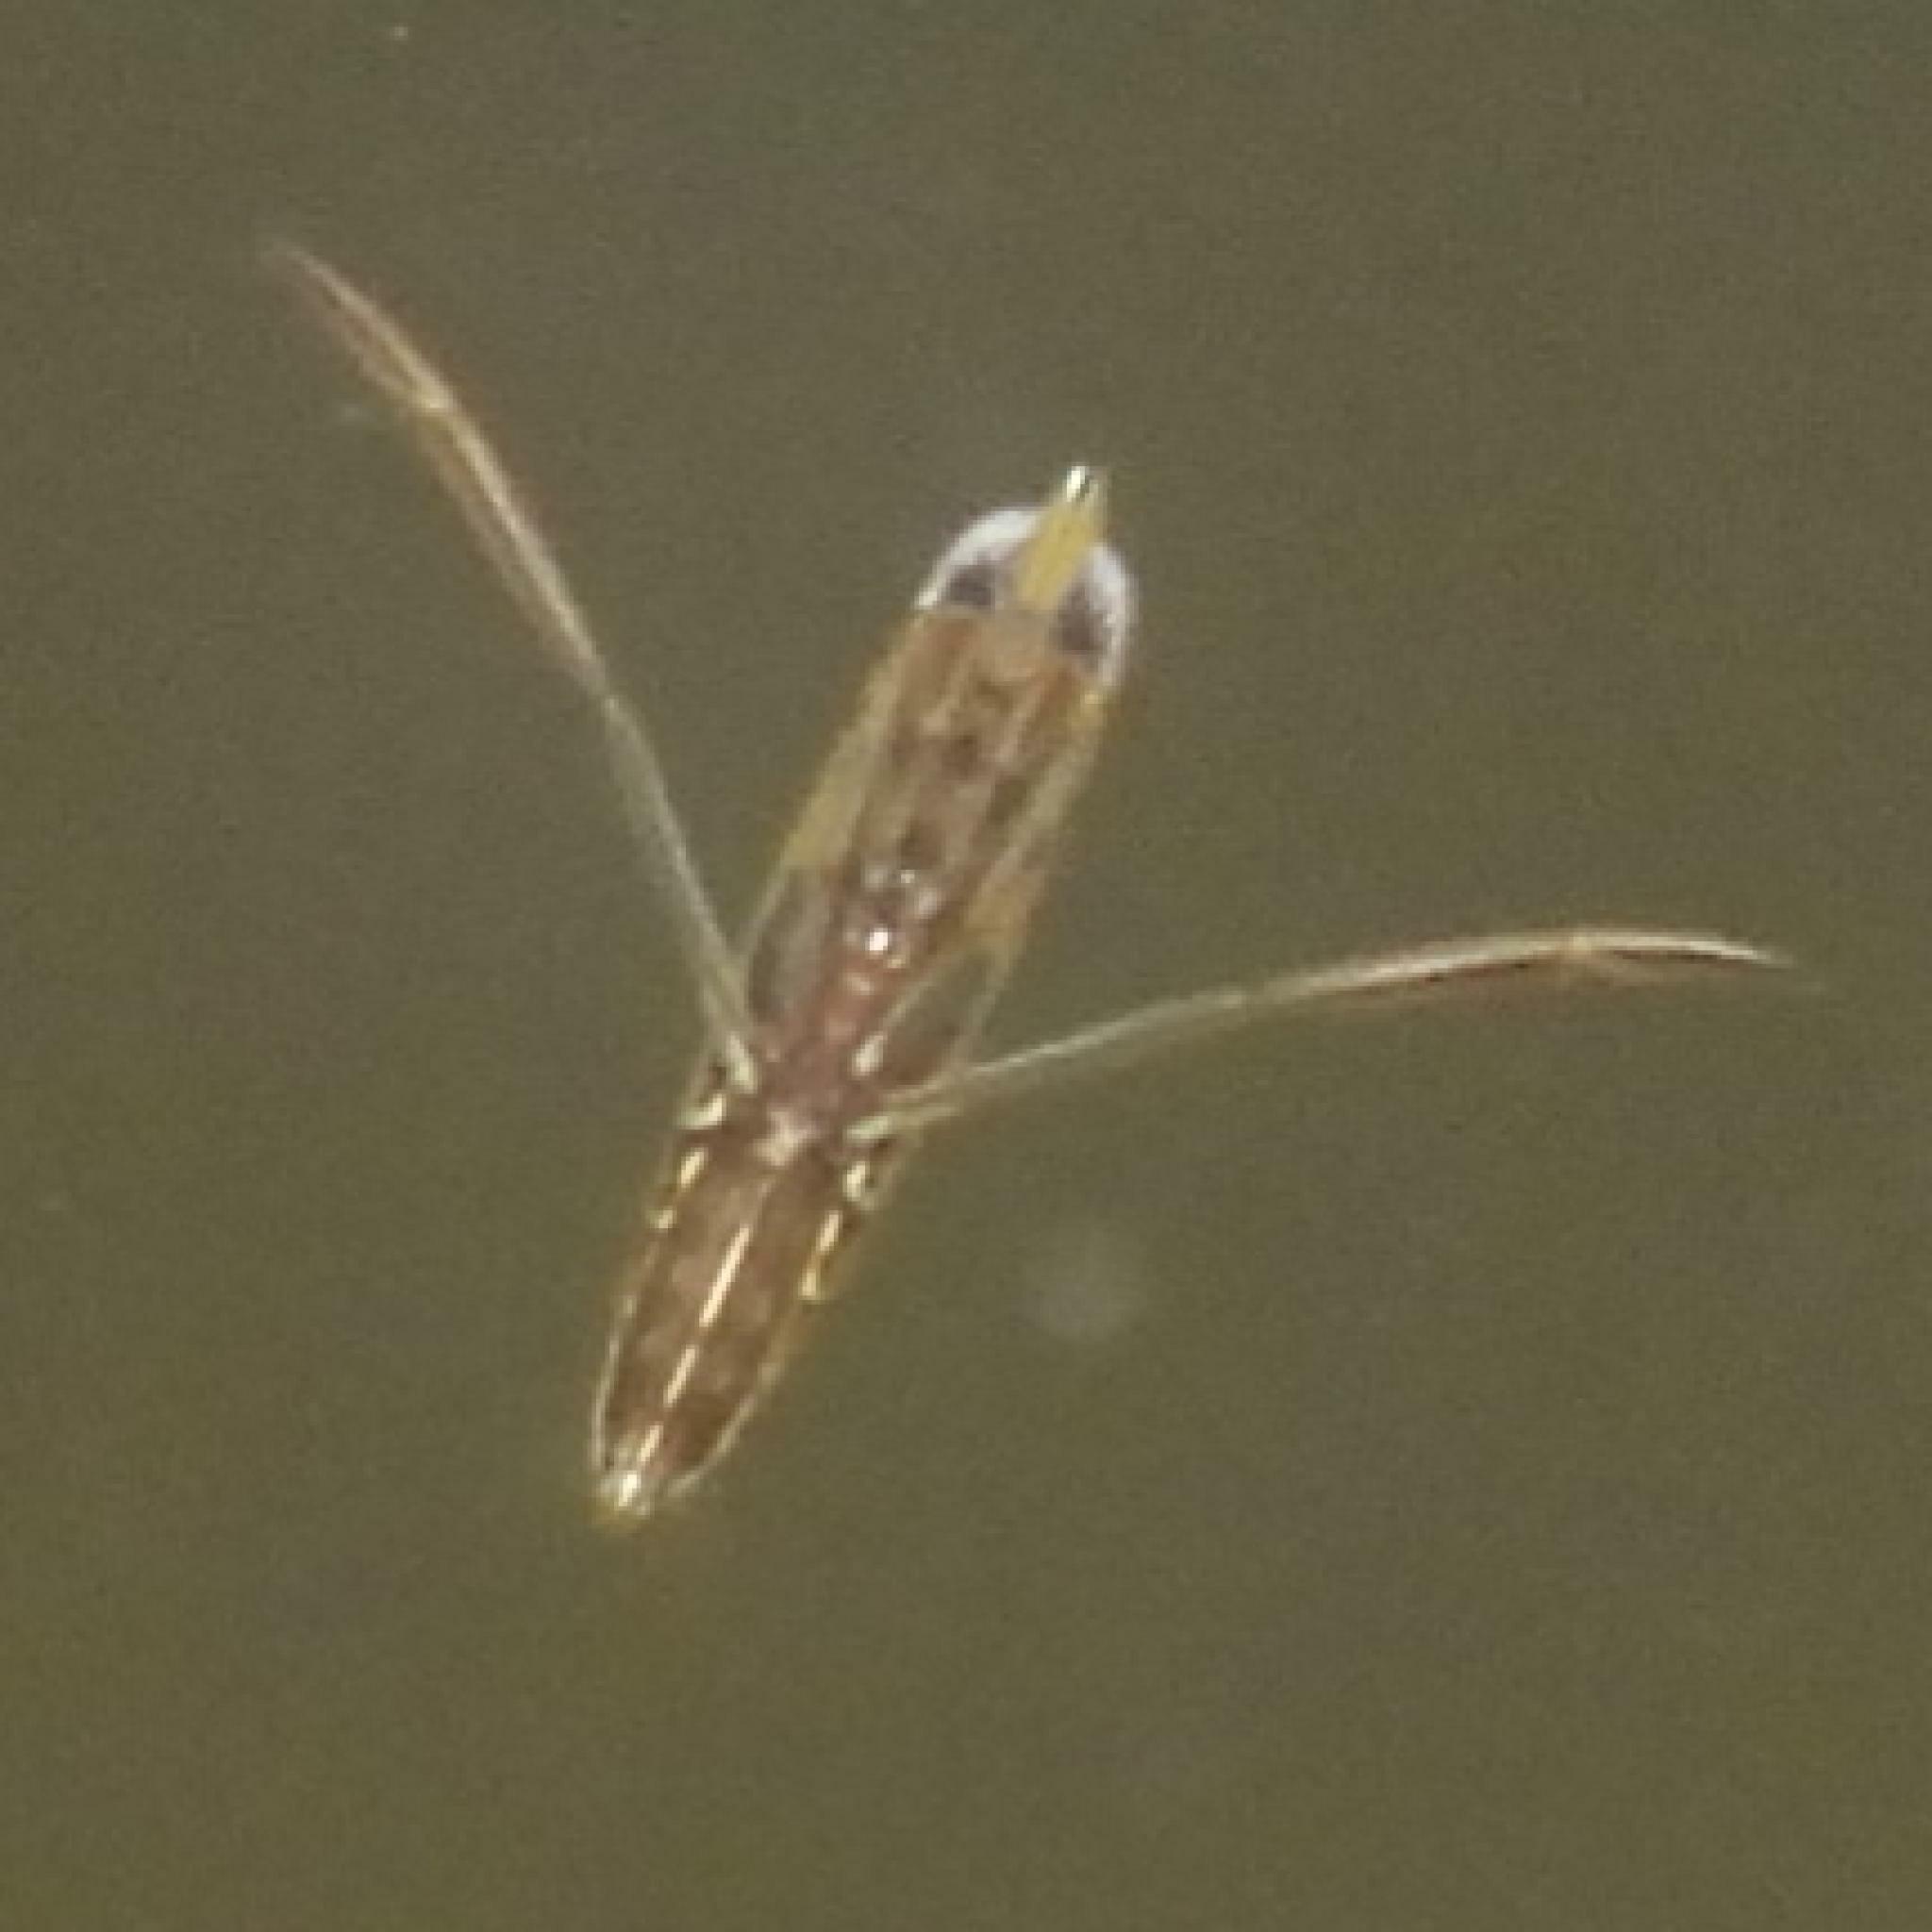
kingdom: Animalia
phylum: Arthropoda
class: Insecta
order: Hemiptera
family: Notonectidae
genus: Anisops
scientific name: Anisops sardeus
